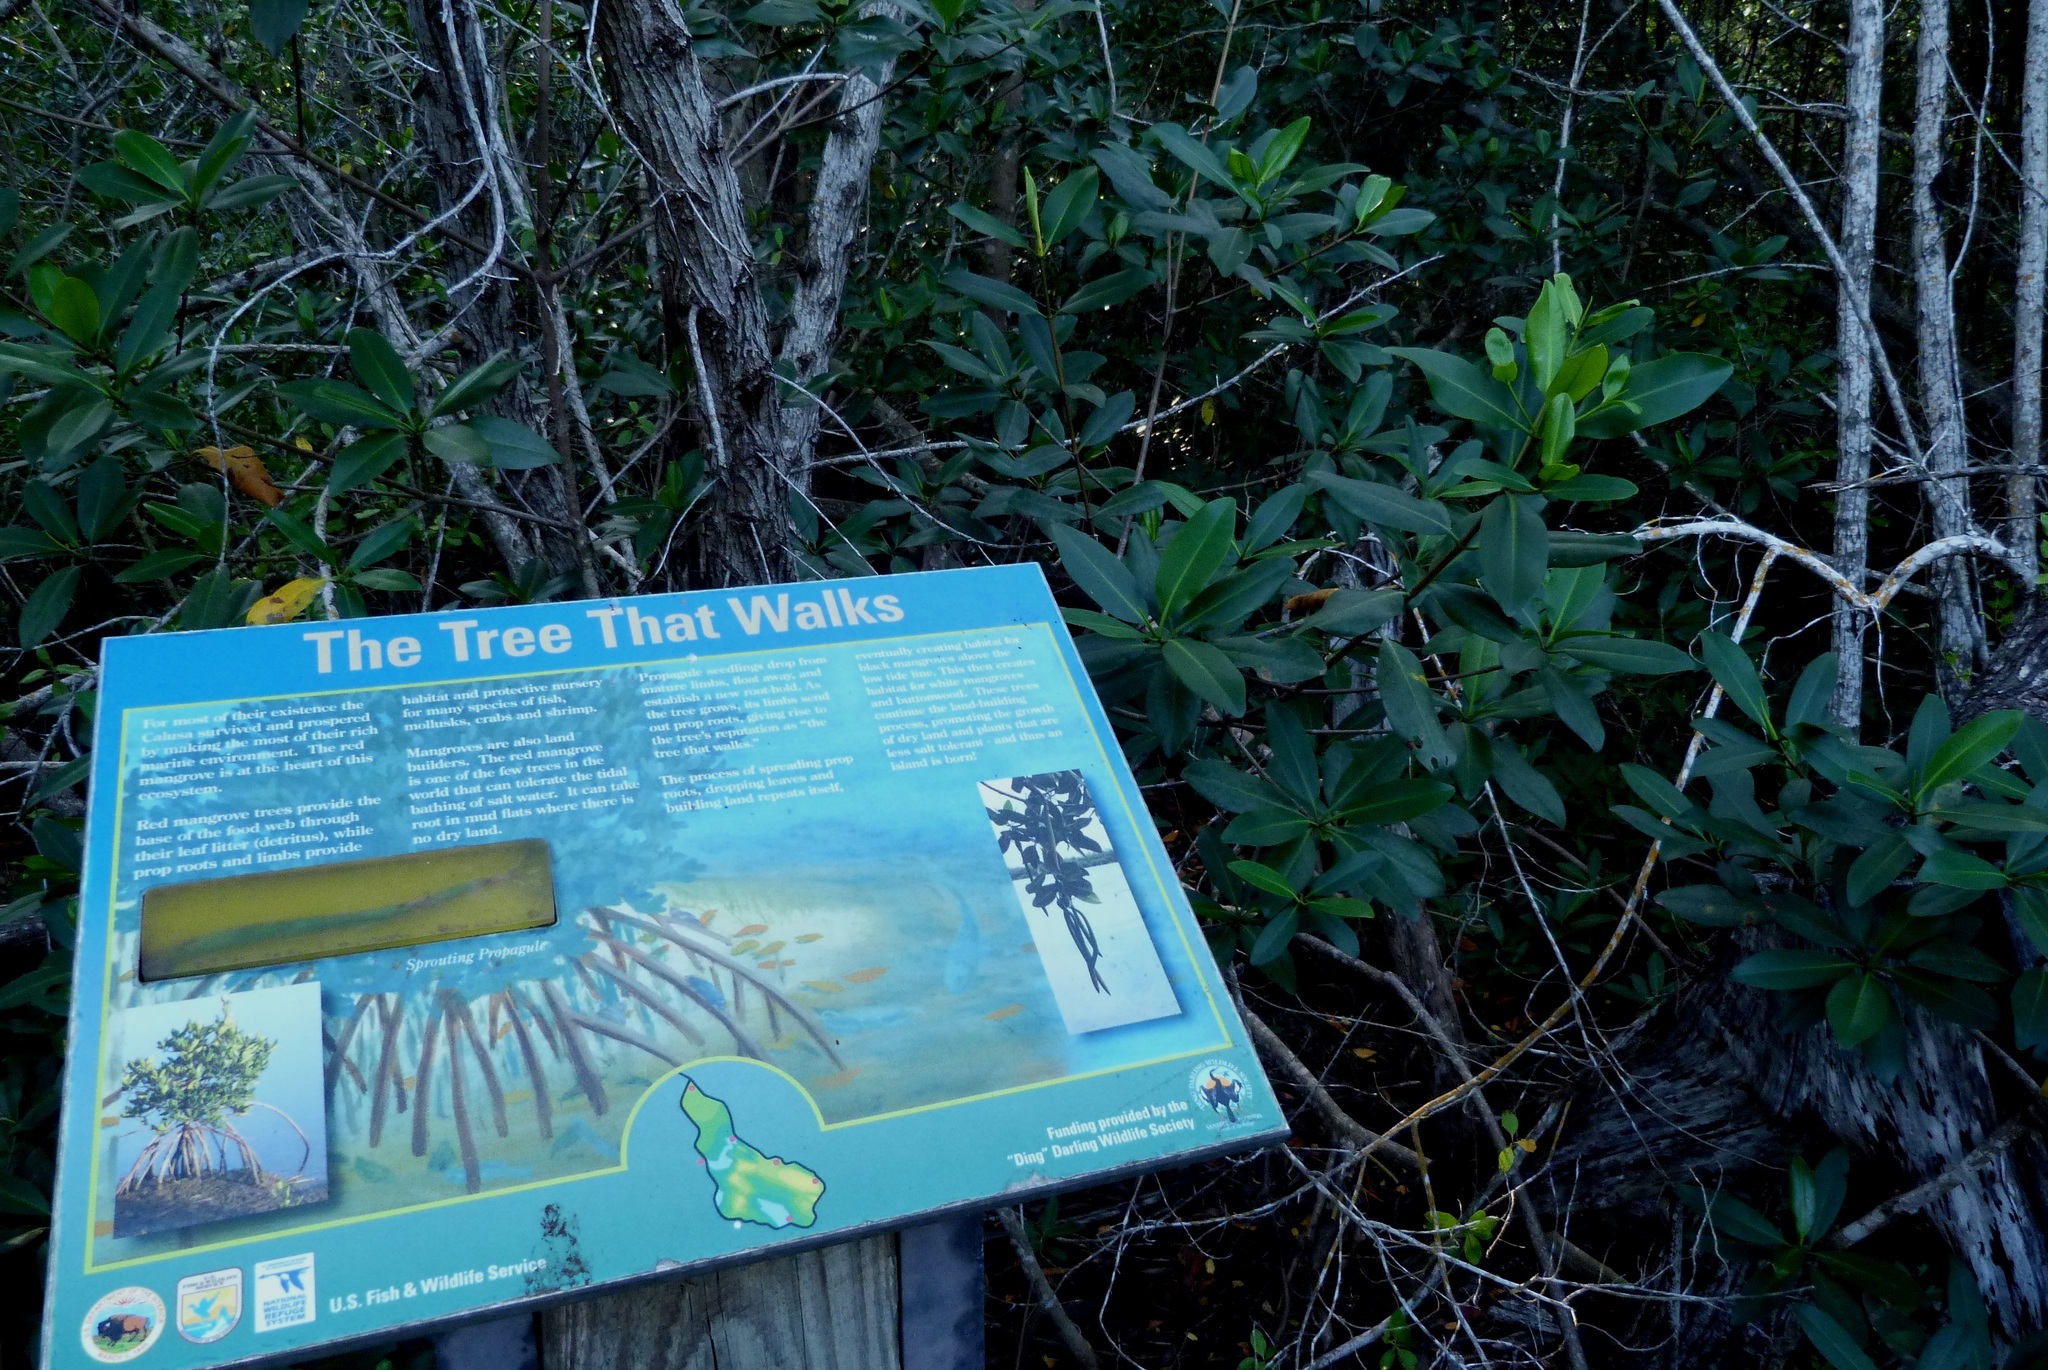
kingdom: Plantae
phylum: Tracheophyta
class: Magnoliopsida
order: Malpighiales
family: Rhizophoraceae
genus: Rhizophora
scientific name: Rhizophora mangle
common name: Red mangrove
